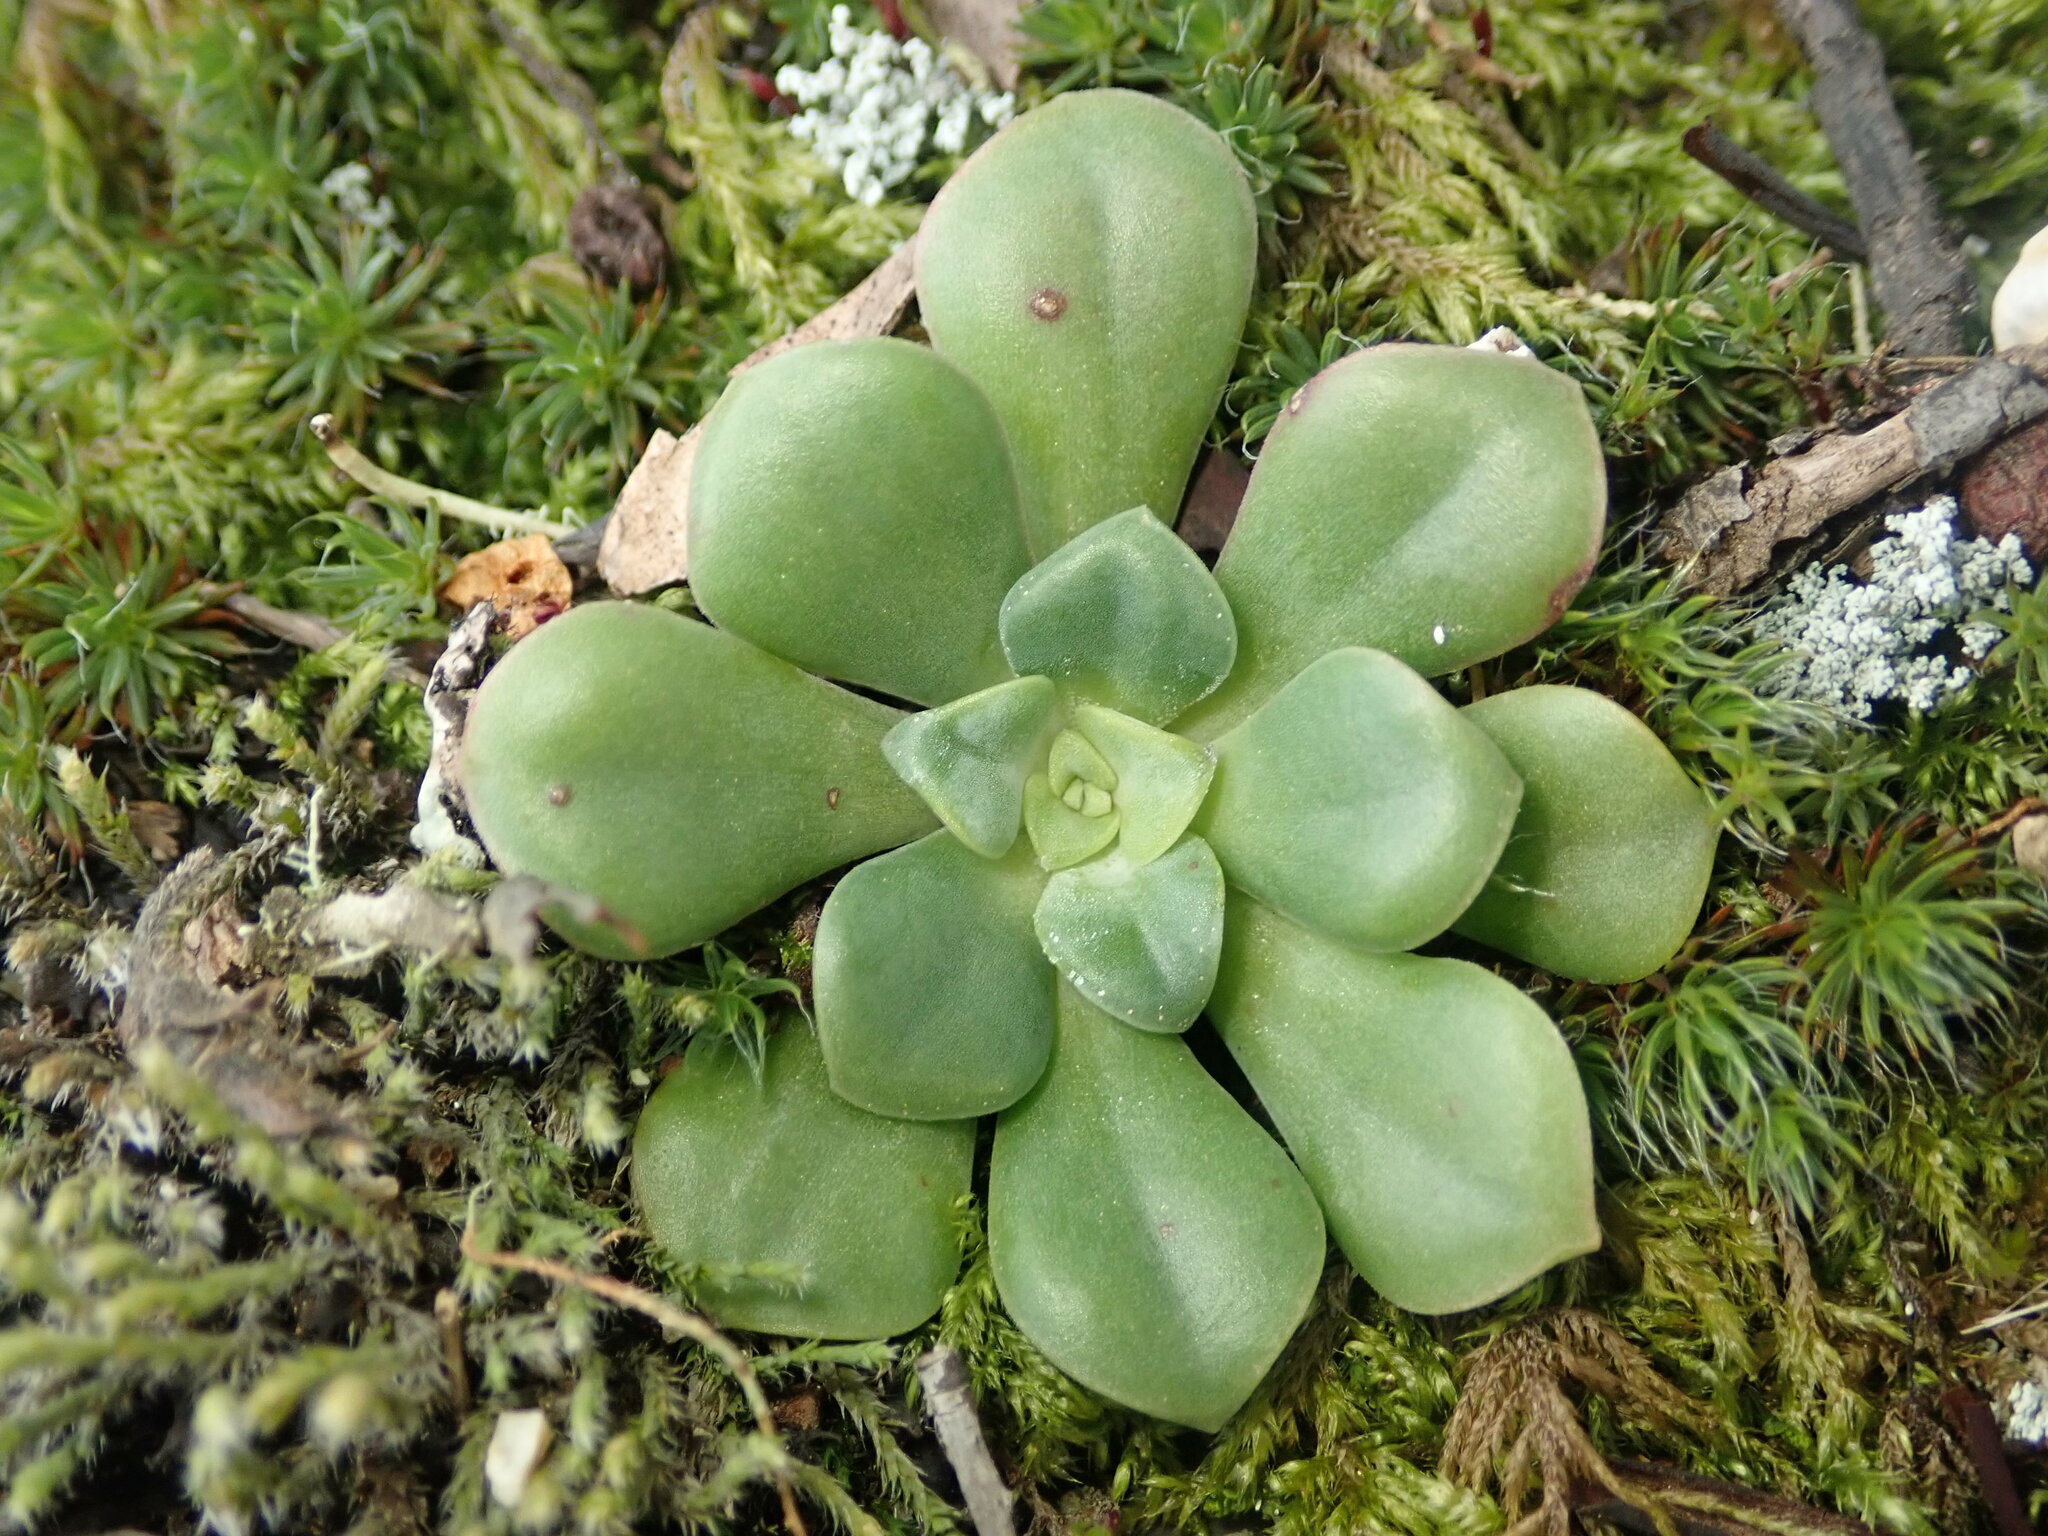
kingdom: Plantae
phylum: Tracheophyta
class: Magnoliopsida
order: Saxifragales
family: Crassulaceae
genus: Sedum
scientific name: Sedum spathulifolium
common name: Colorado stonecrop
